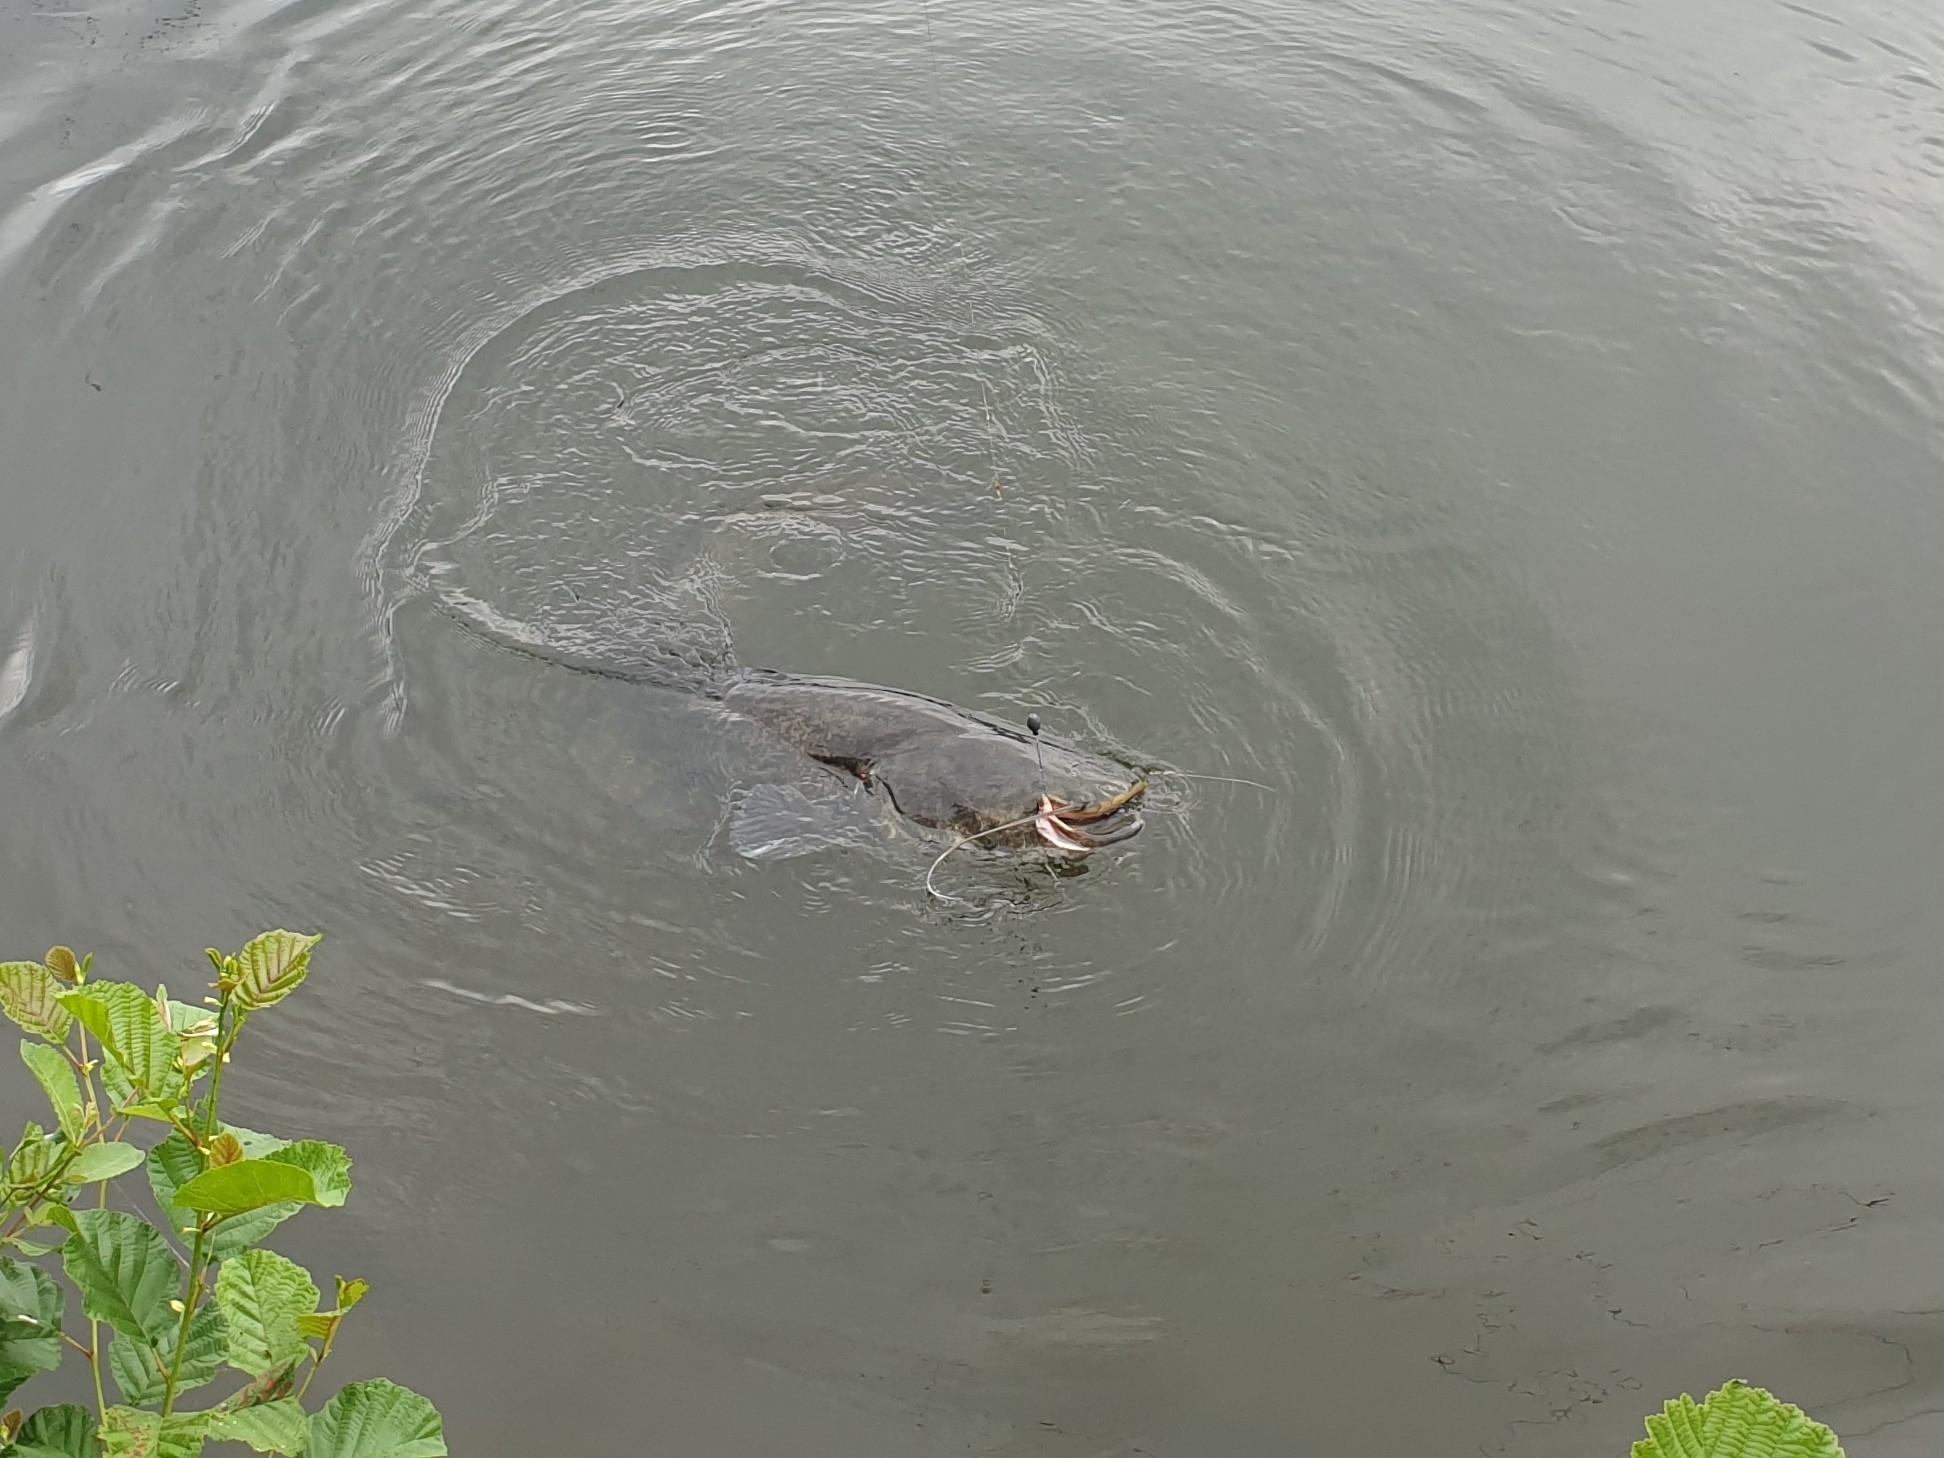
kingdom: Animalia
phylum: Chordata
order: Siluriformes
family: Siluridae
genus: Silurus
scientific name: Silurus glanis
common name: Wels
